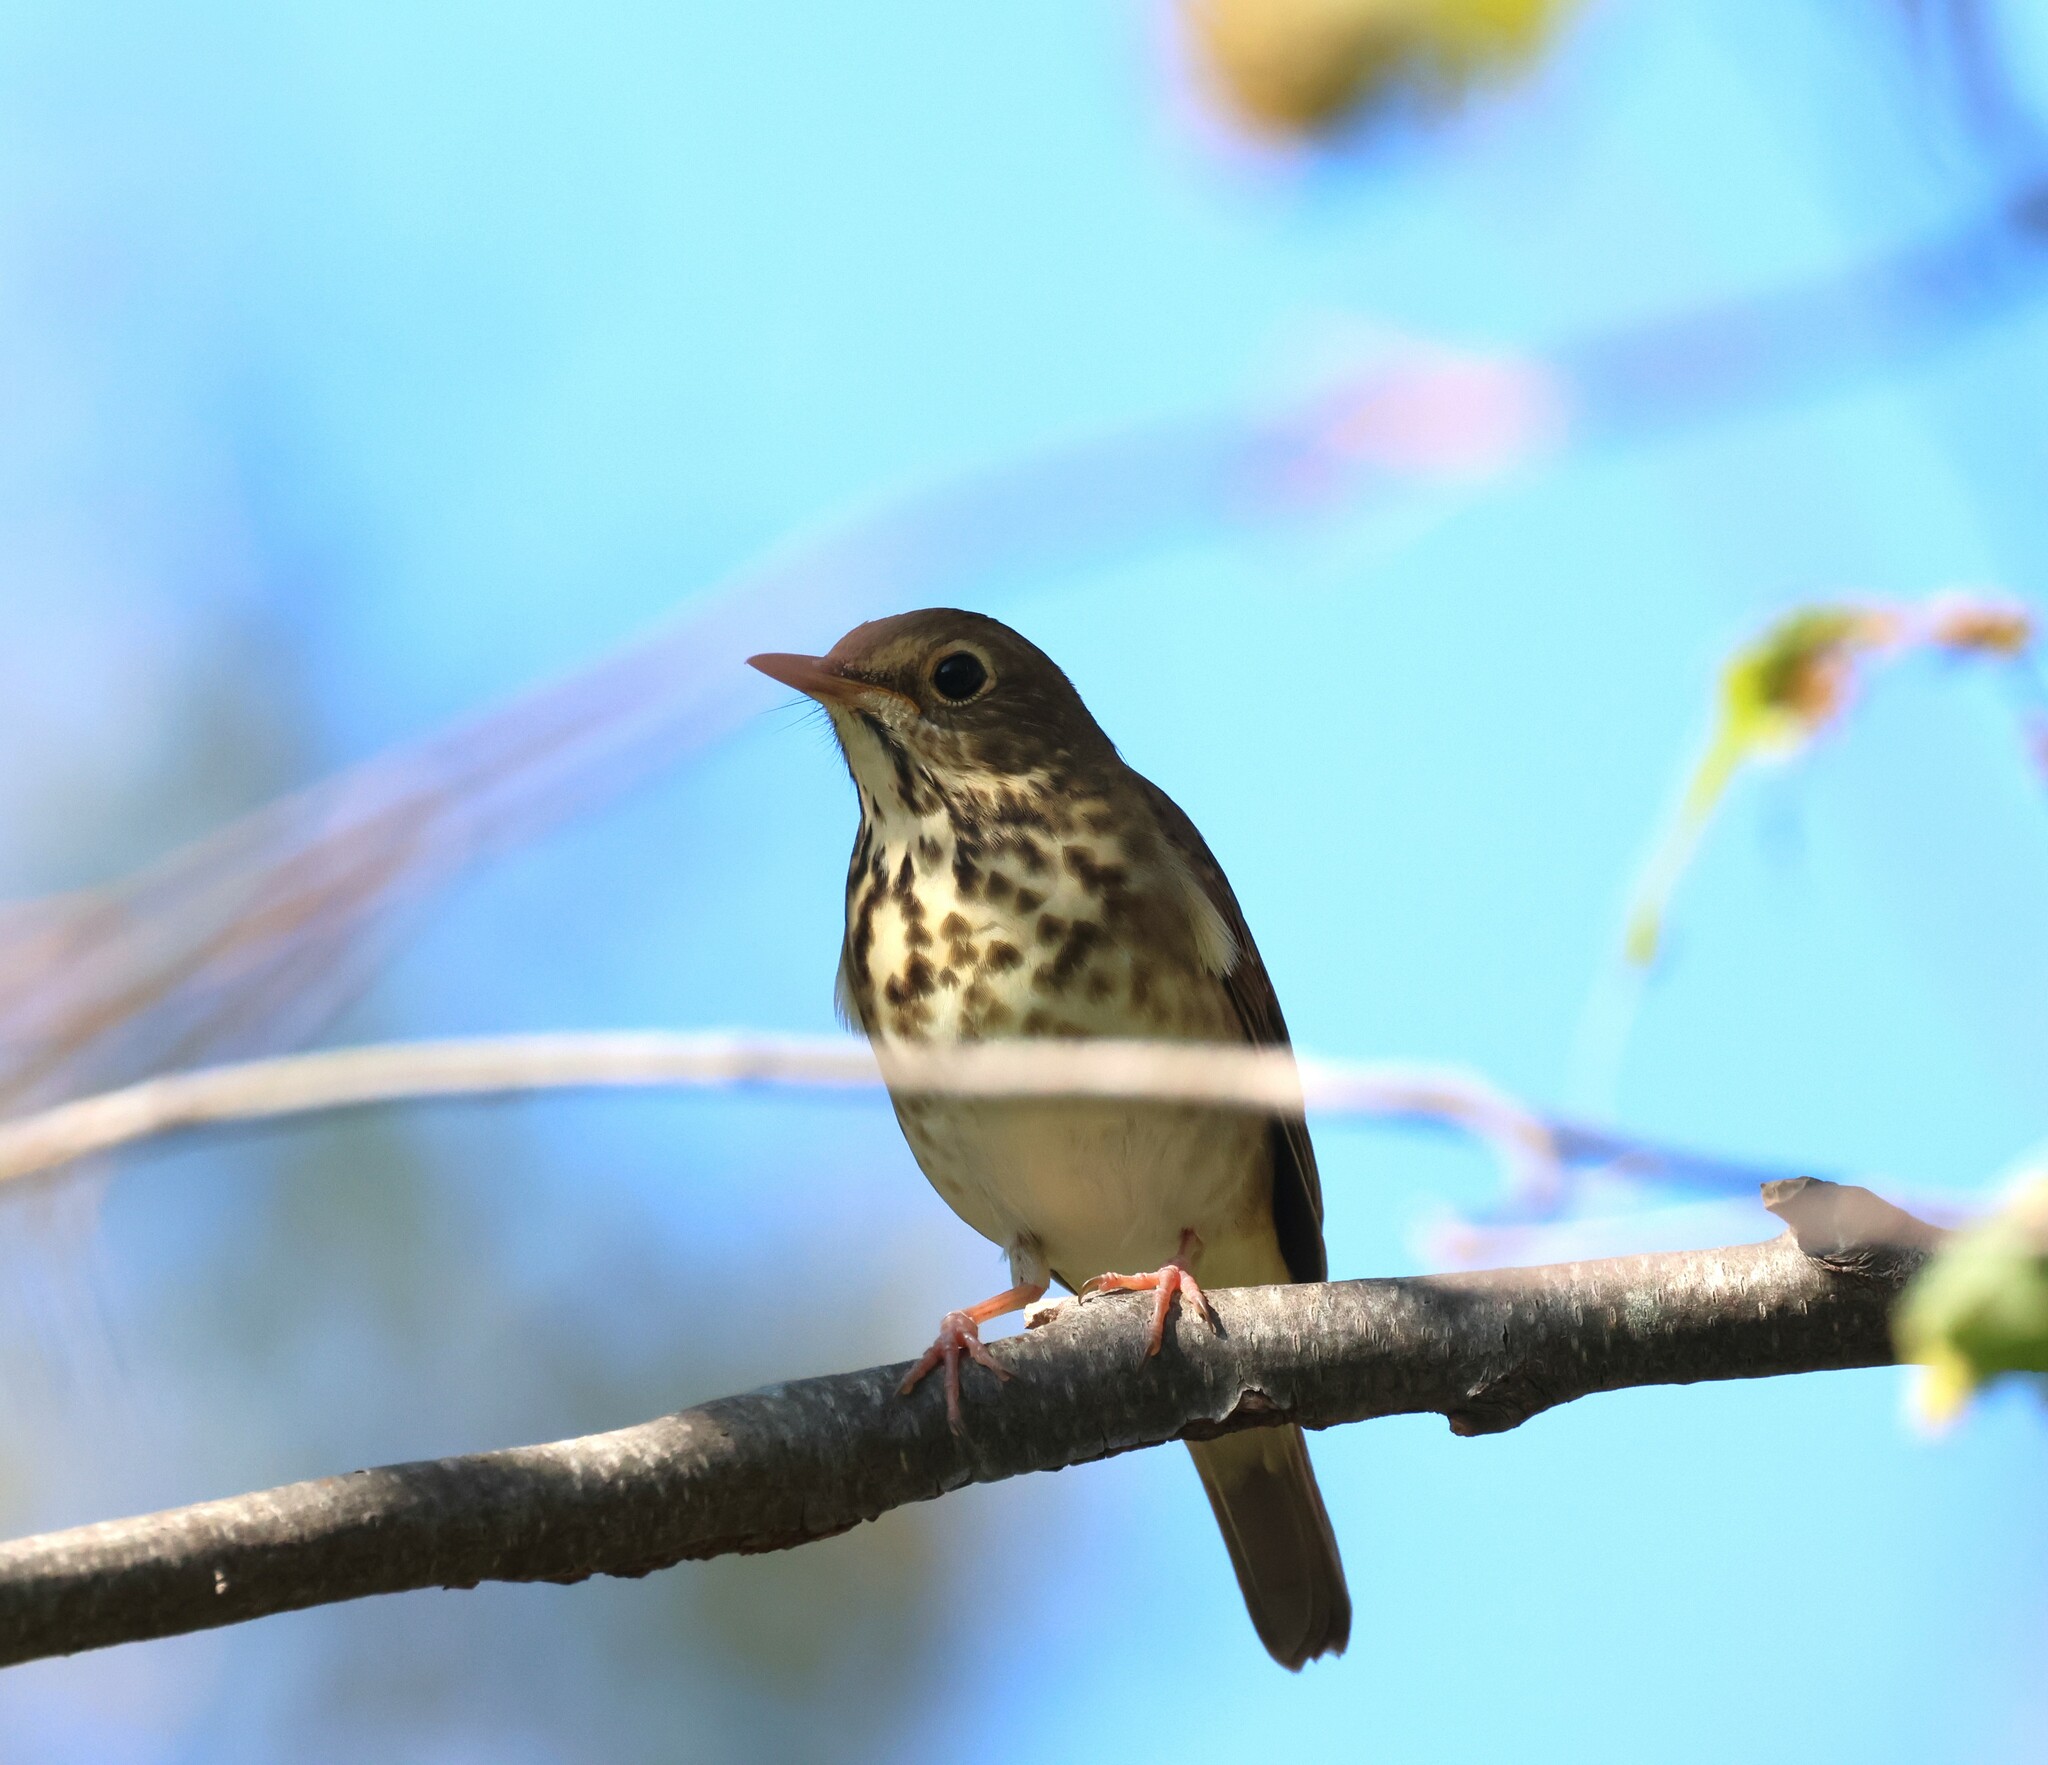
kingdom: Animalia
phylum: Chordata
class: Aves
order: Passeriformes
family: Turdidae
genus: Catharus
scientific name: Catharus guttatus
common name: Hermit thrush
